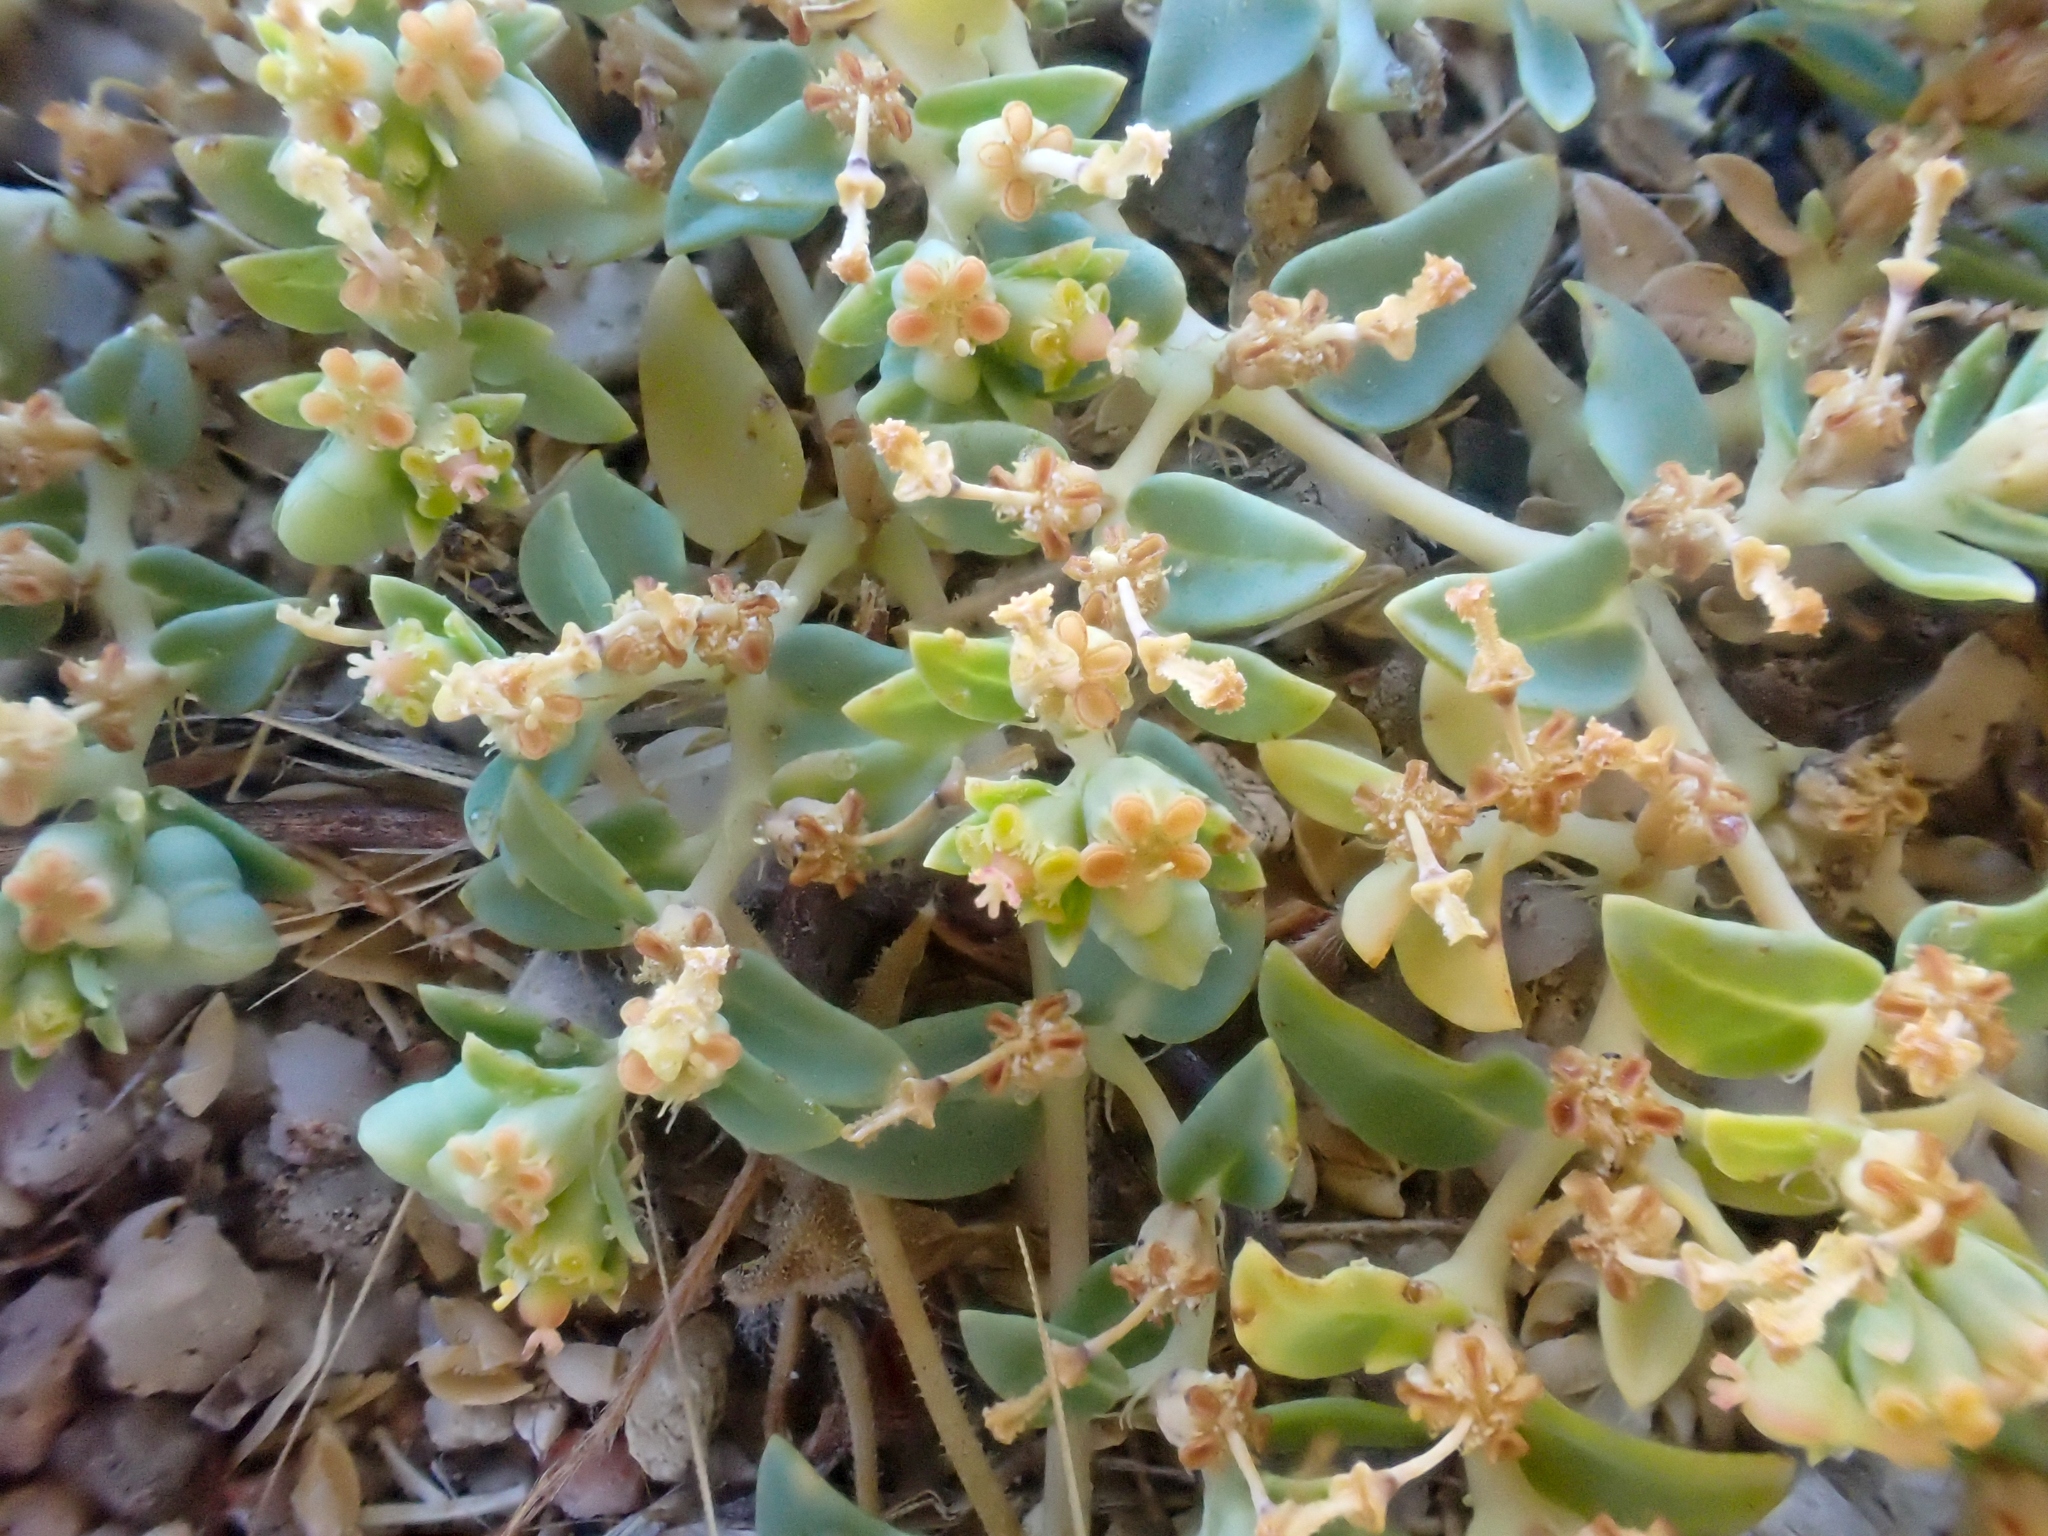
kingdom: Plantae
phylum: Tracheophyta
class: Magnoliopsida
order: Malpighiales
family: Euphorbiaceae
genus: Euphorbia
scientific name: Euphorbia ocellata
